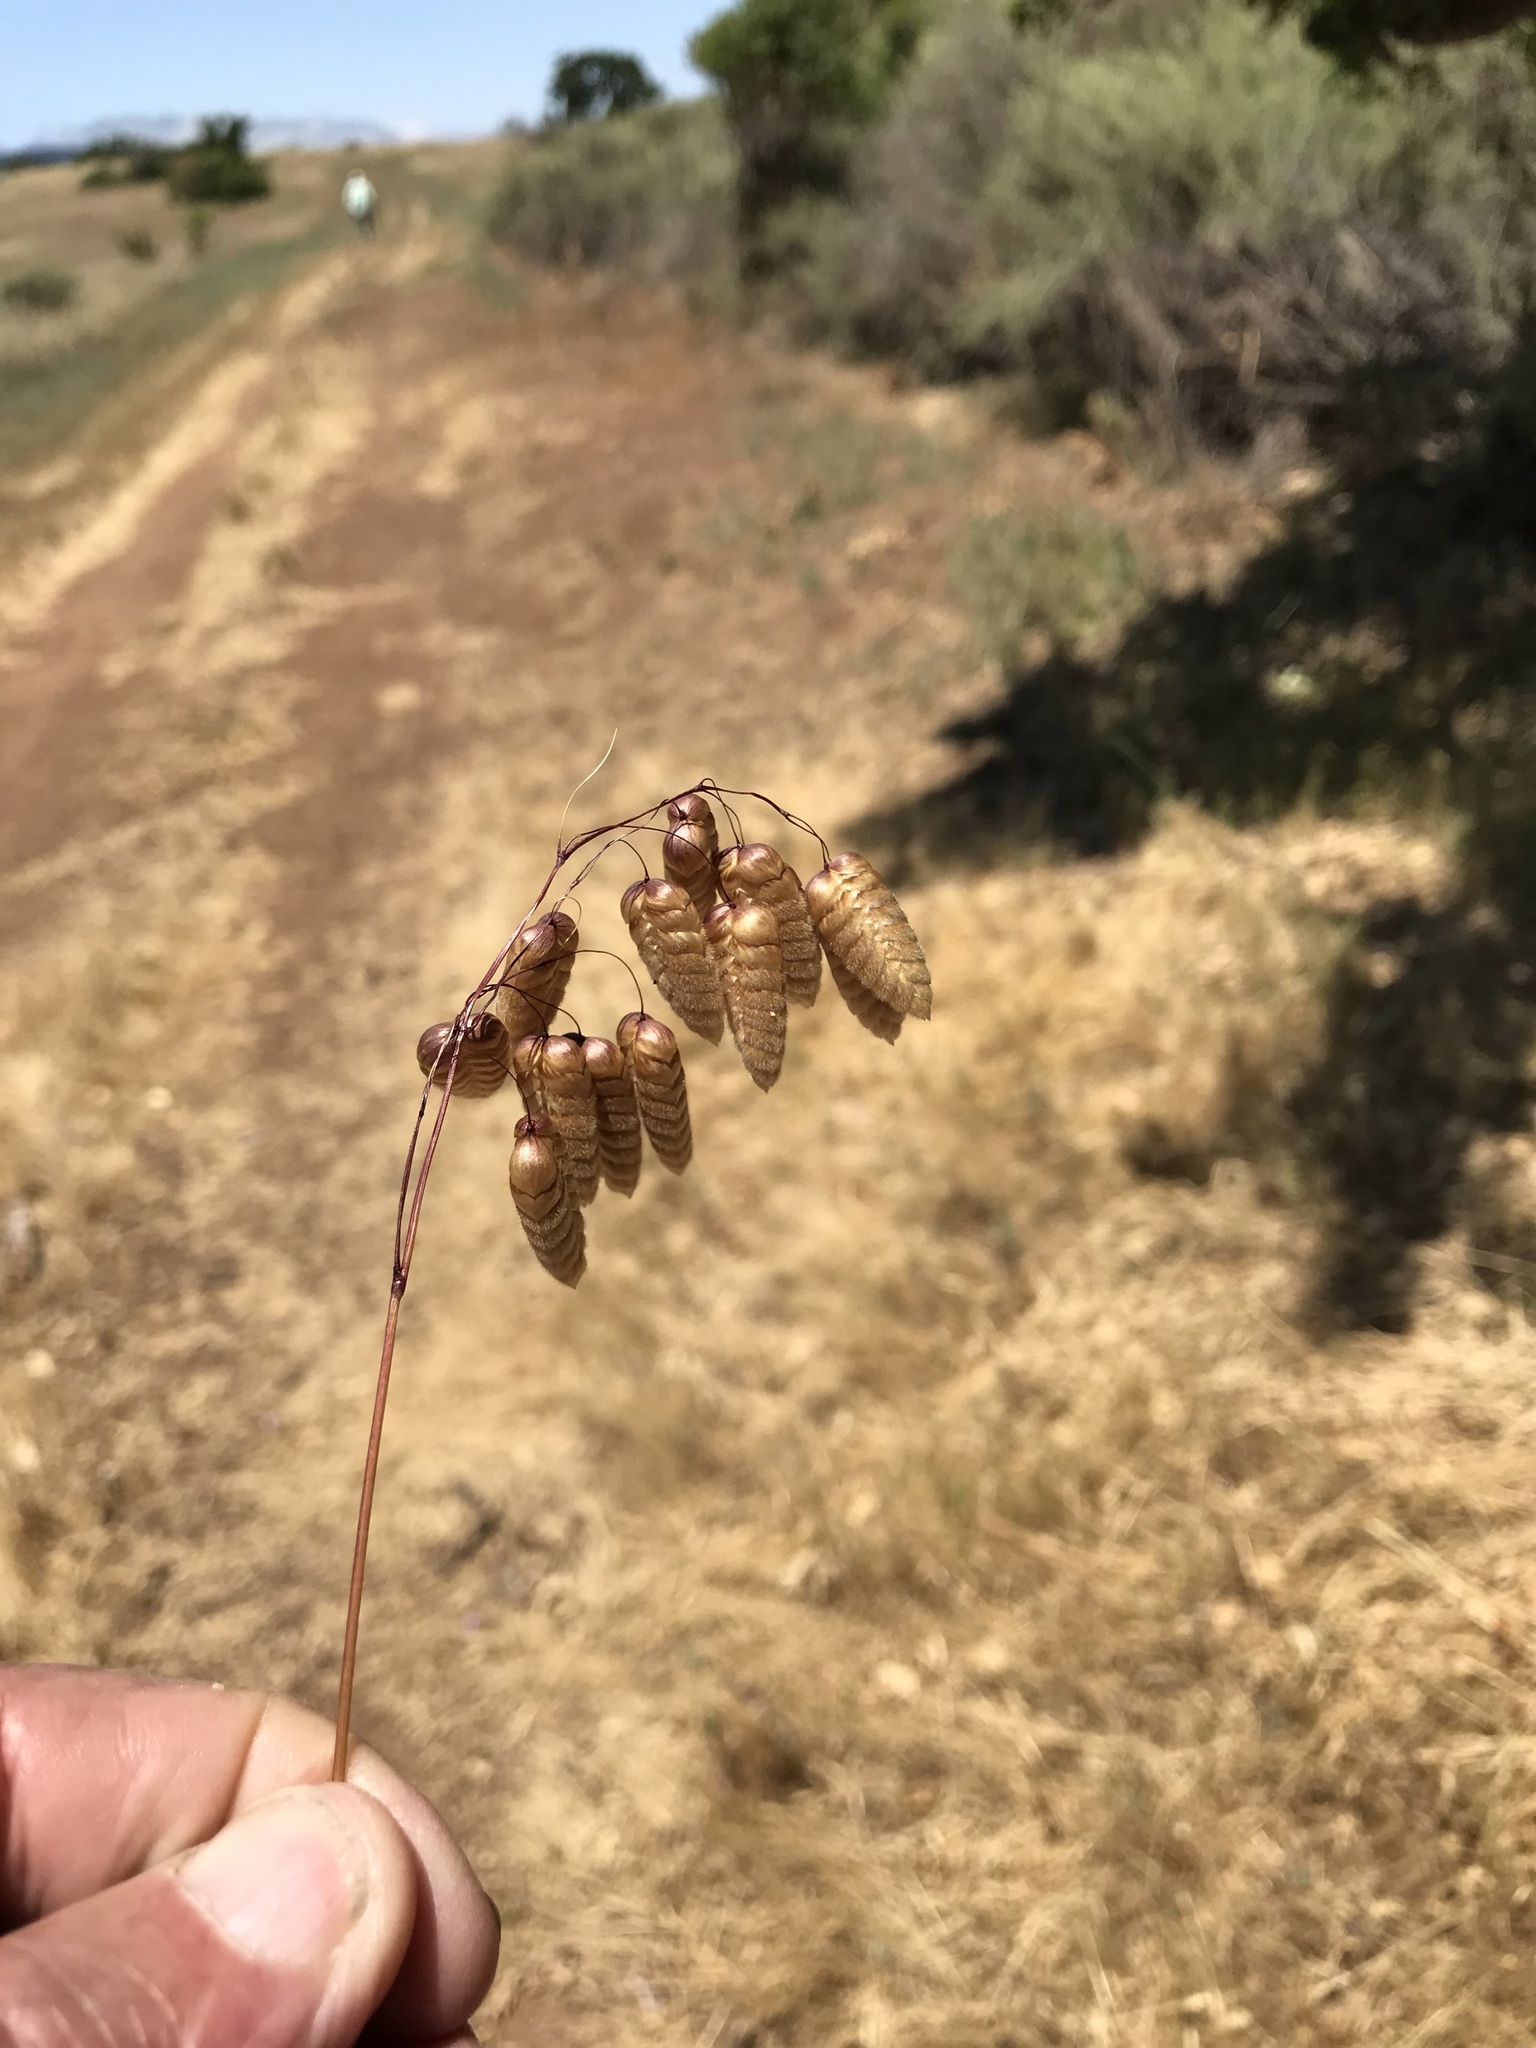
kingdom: Plantae
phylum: Tracheophyta
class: Liliopsida
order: Poales
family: Poaceae
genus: Briza
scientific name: Briza maxima
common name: Big quakinggrass
